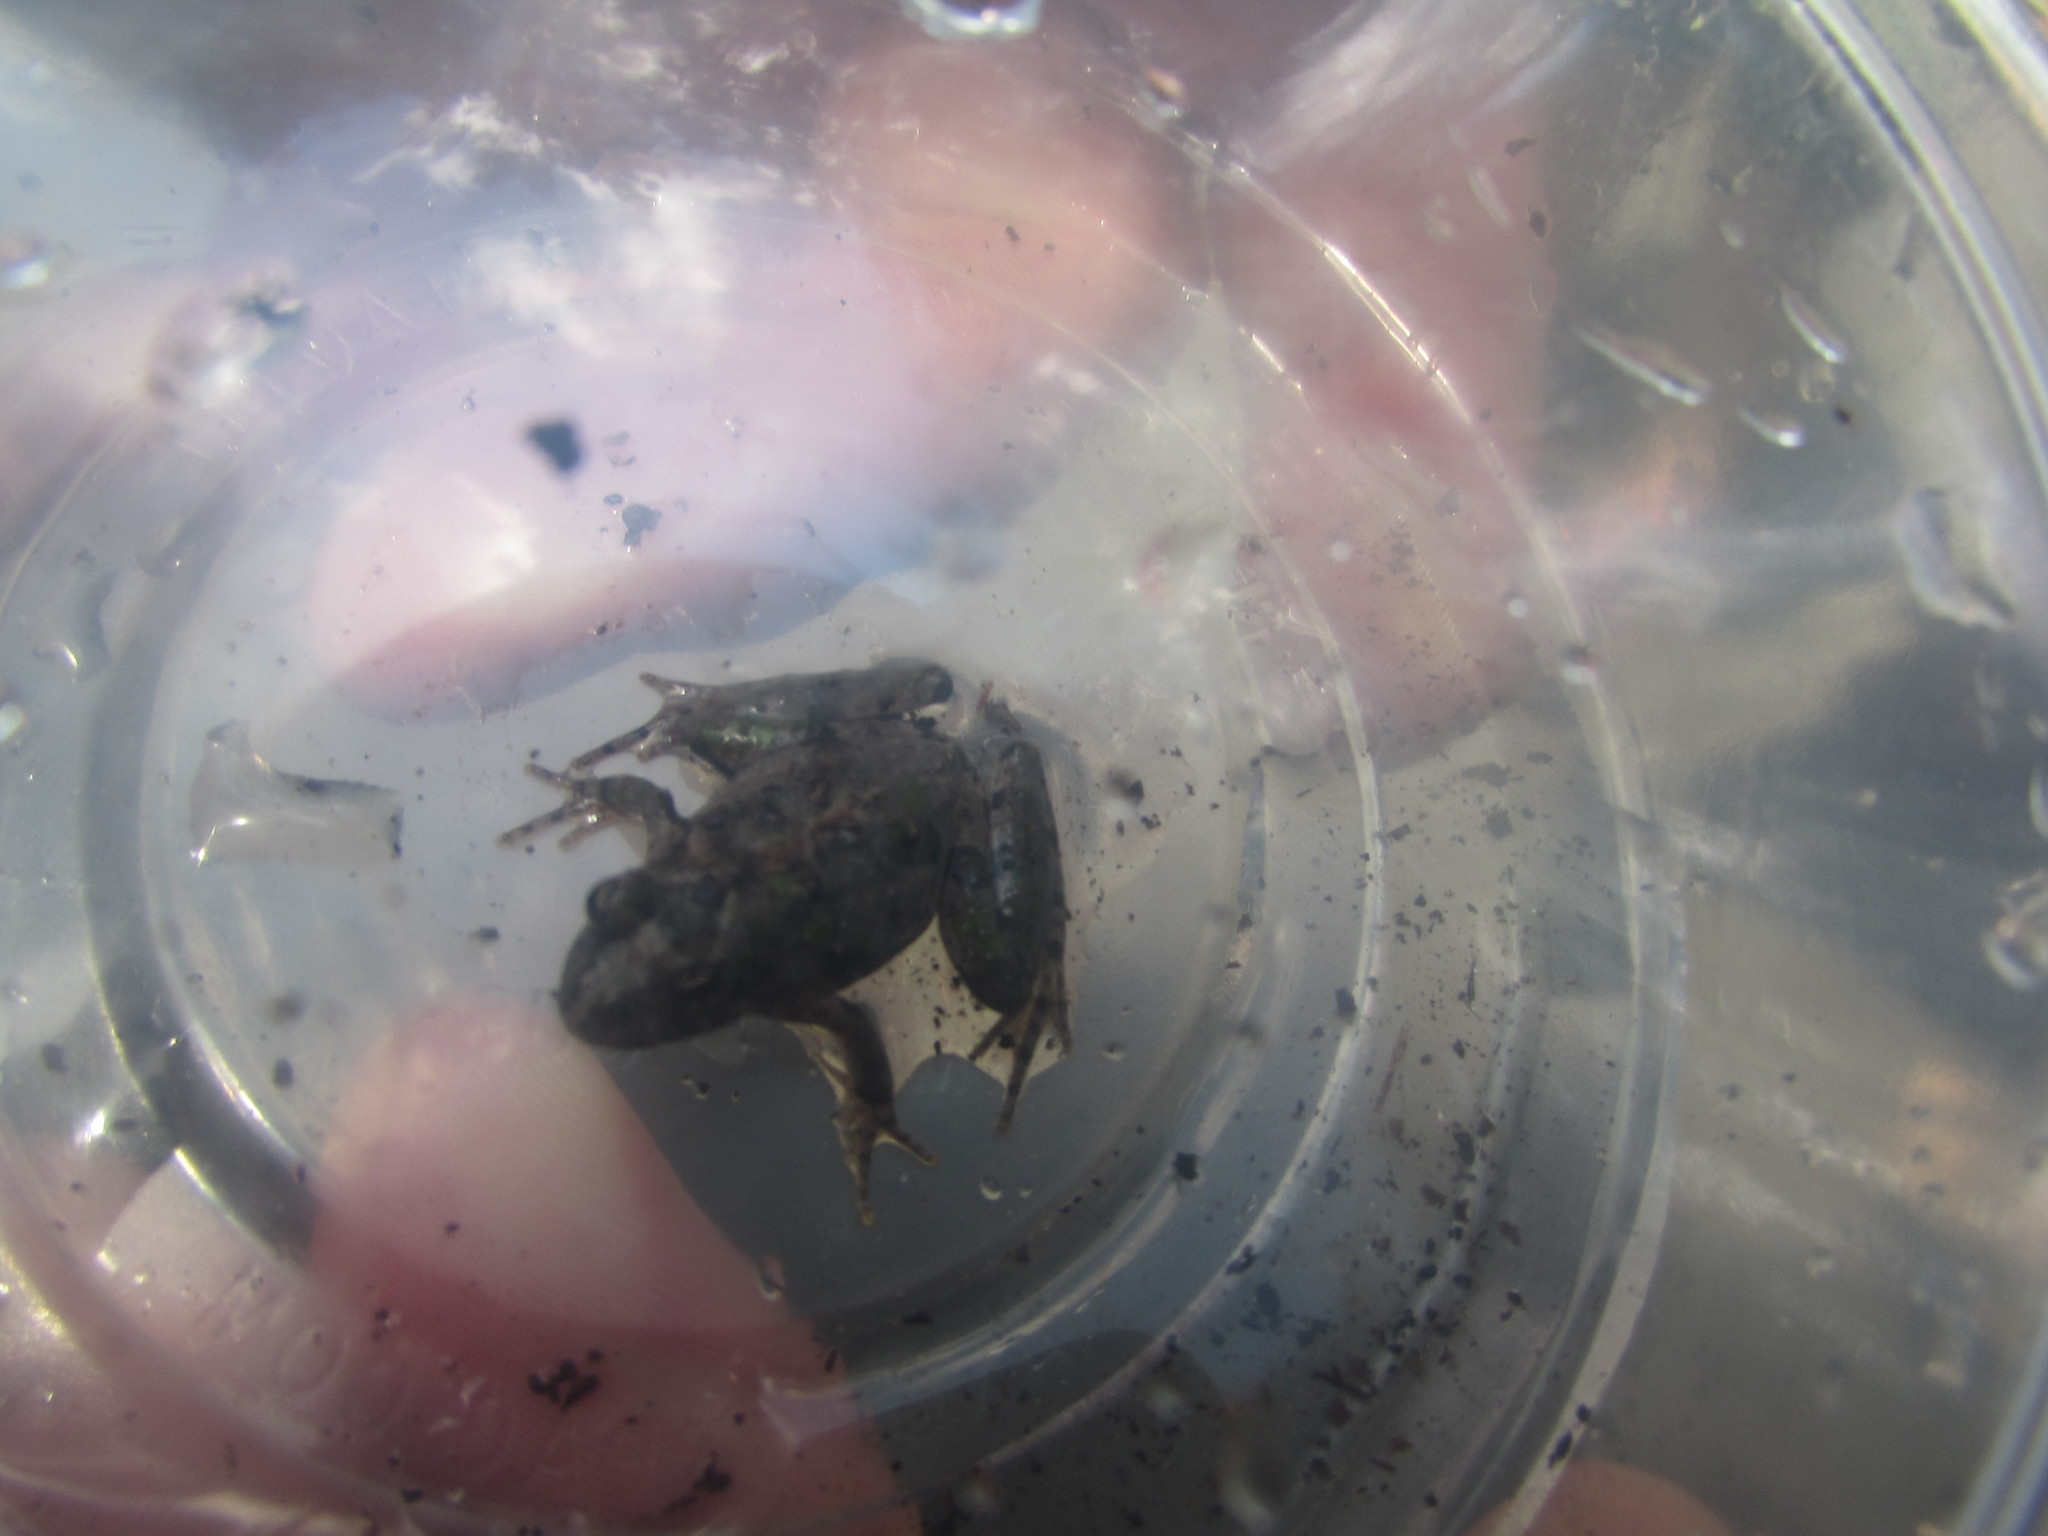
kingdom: Animalia
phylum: Chordata
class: Amphibia
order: Anura
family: Hylidae
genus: Acris
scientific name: Acris crepitans
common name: Northern cricket frog
